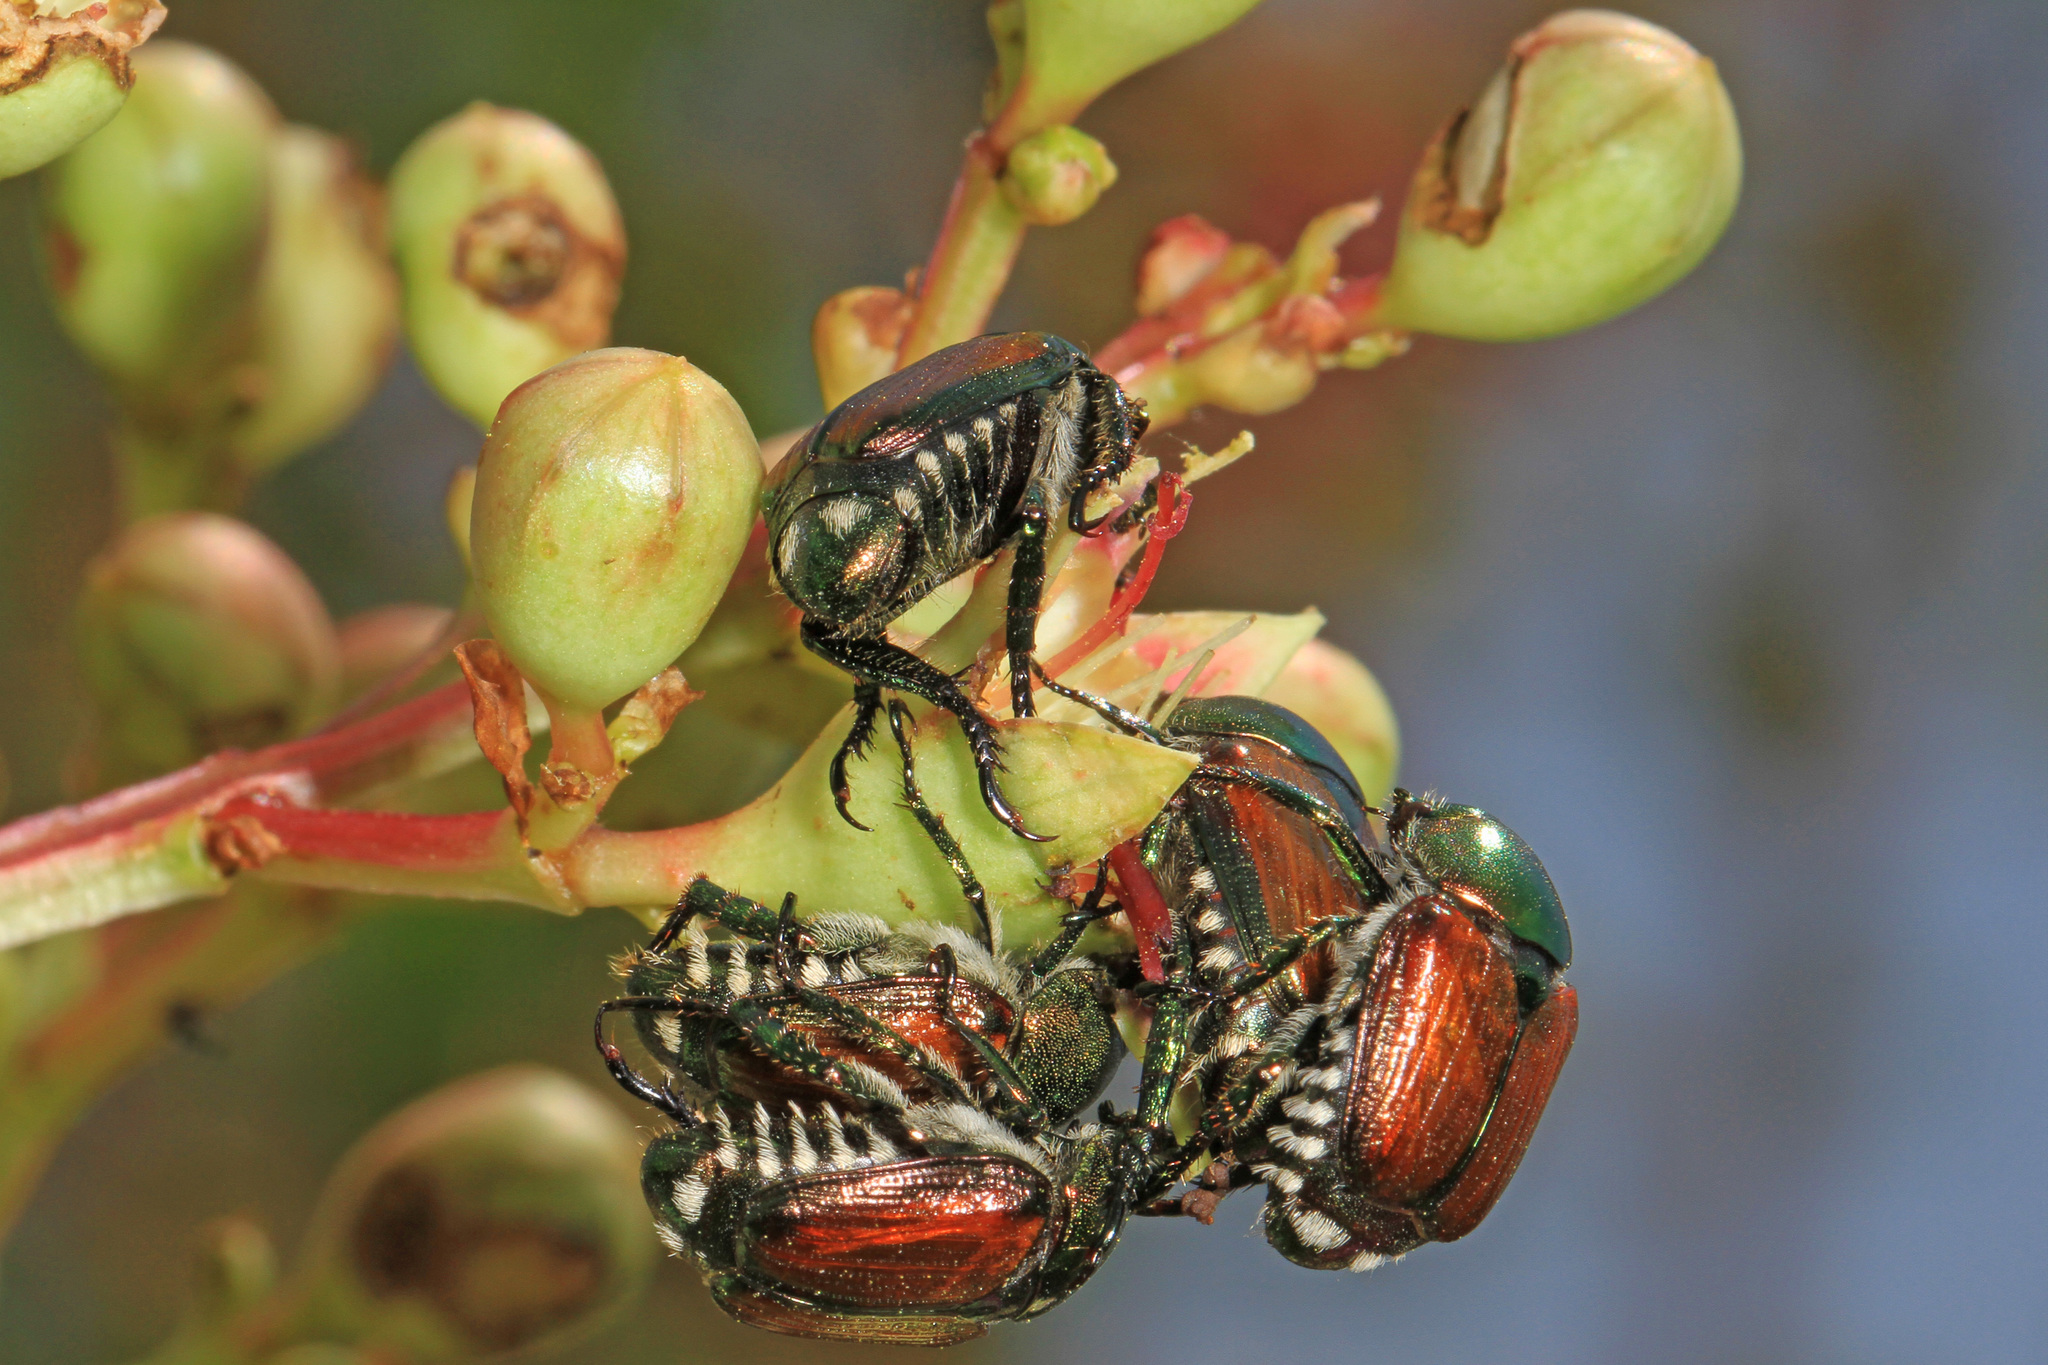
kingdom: Animalia
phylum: Arthropoda
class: Insecta
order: Coleoptera
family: Scarabaeidae
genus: Popillia
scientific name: Popillia japonica
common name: Japanese beetle
